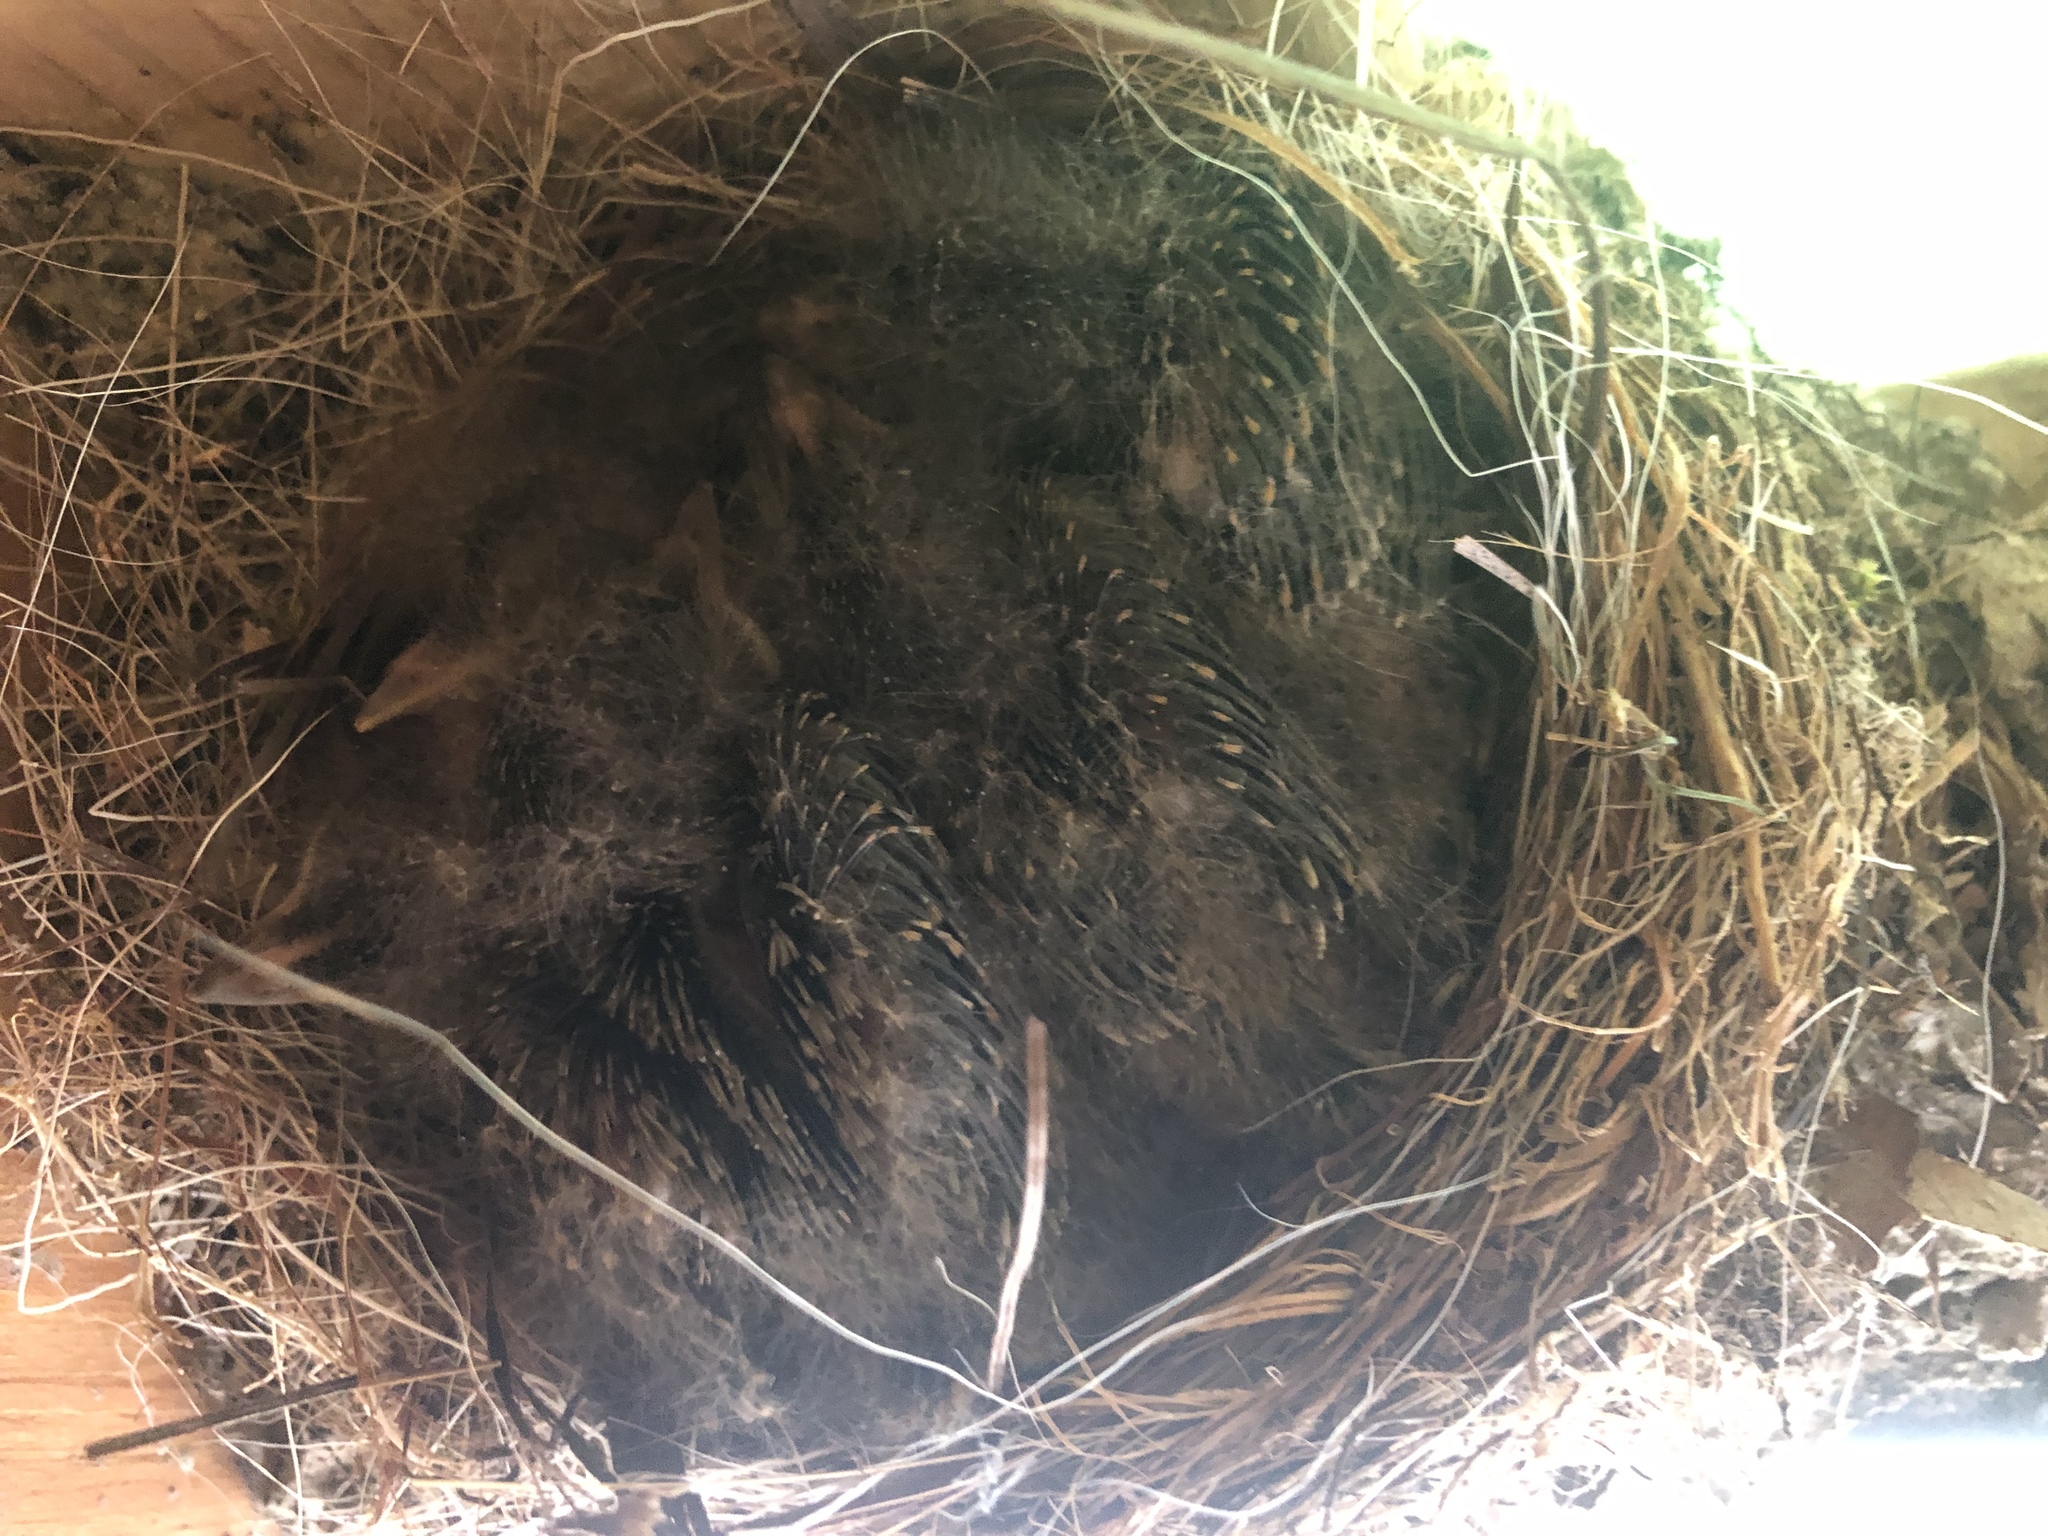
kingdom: Animalia
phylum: Chordata
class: Aves
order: Passeriformes
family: Tyrannidae
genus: Sayornis
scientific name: Sayornis phoebe
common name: Eastern phoebe
